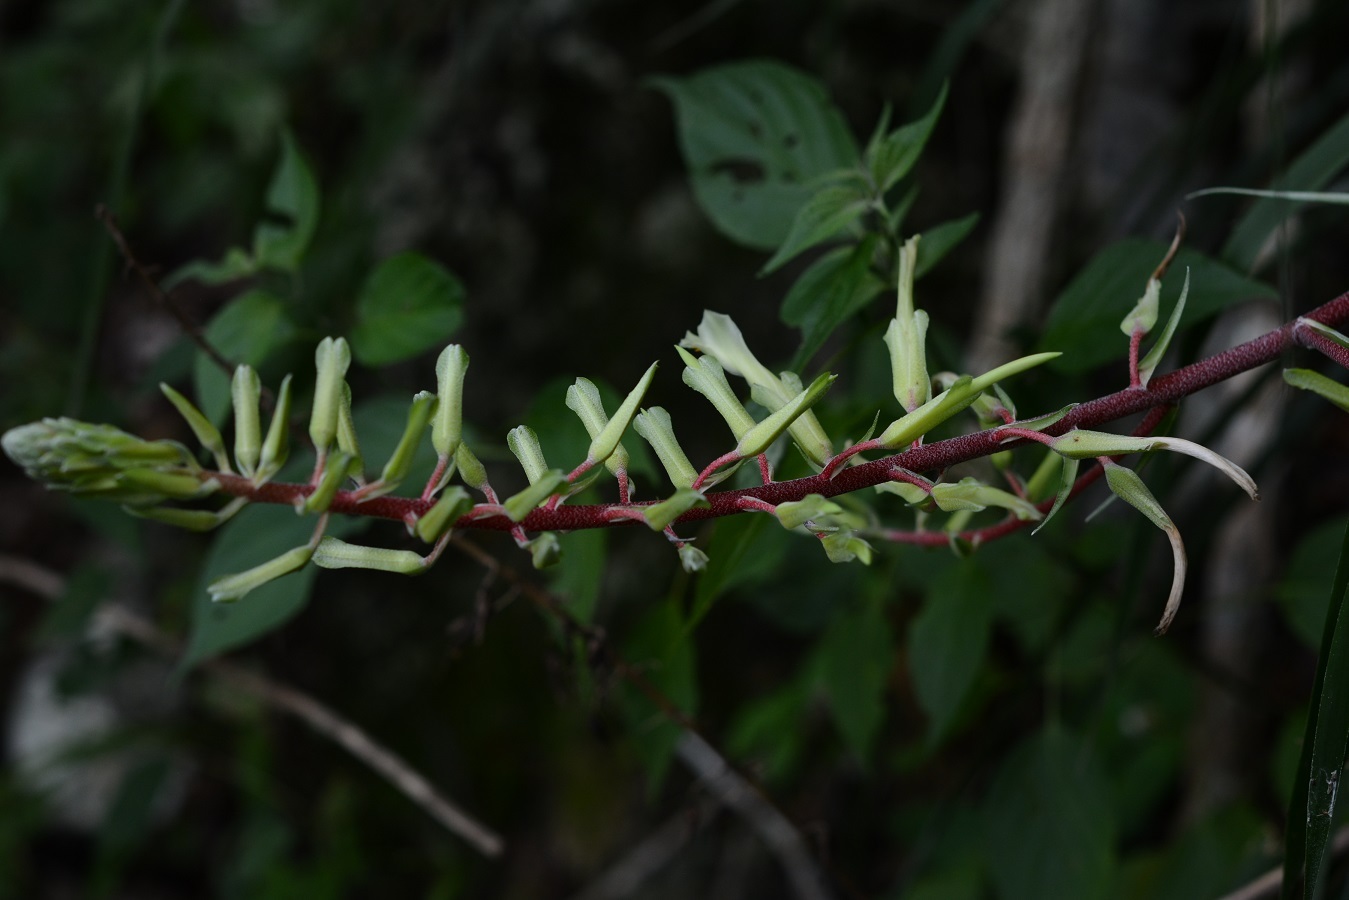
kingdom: Plantae
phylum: Tracheophyta
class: Liliopsida
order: Poales
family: Bromeliaceae
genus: Pitcairnia
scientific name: Pitcairnia breedlovei
